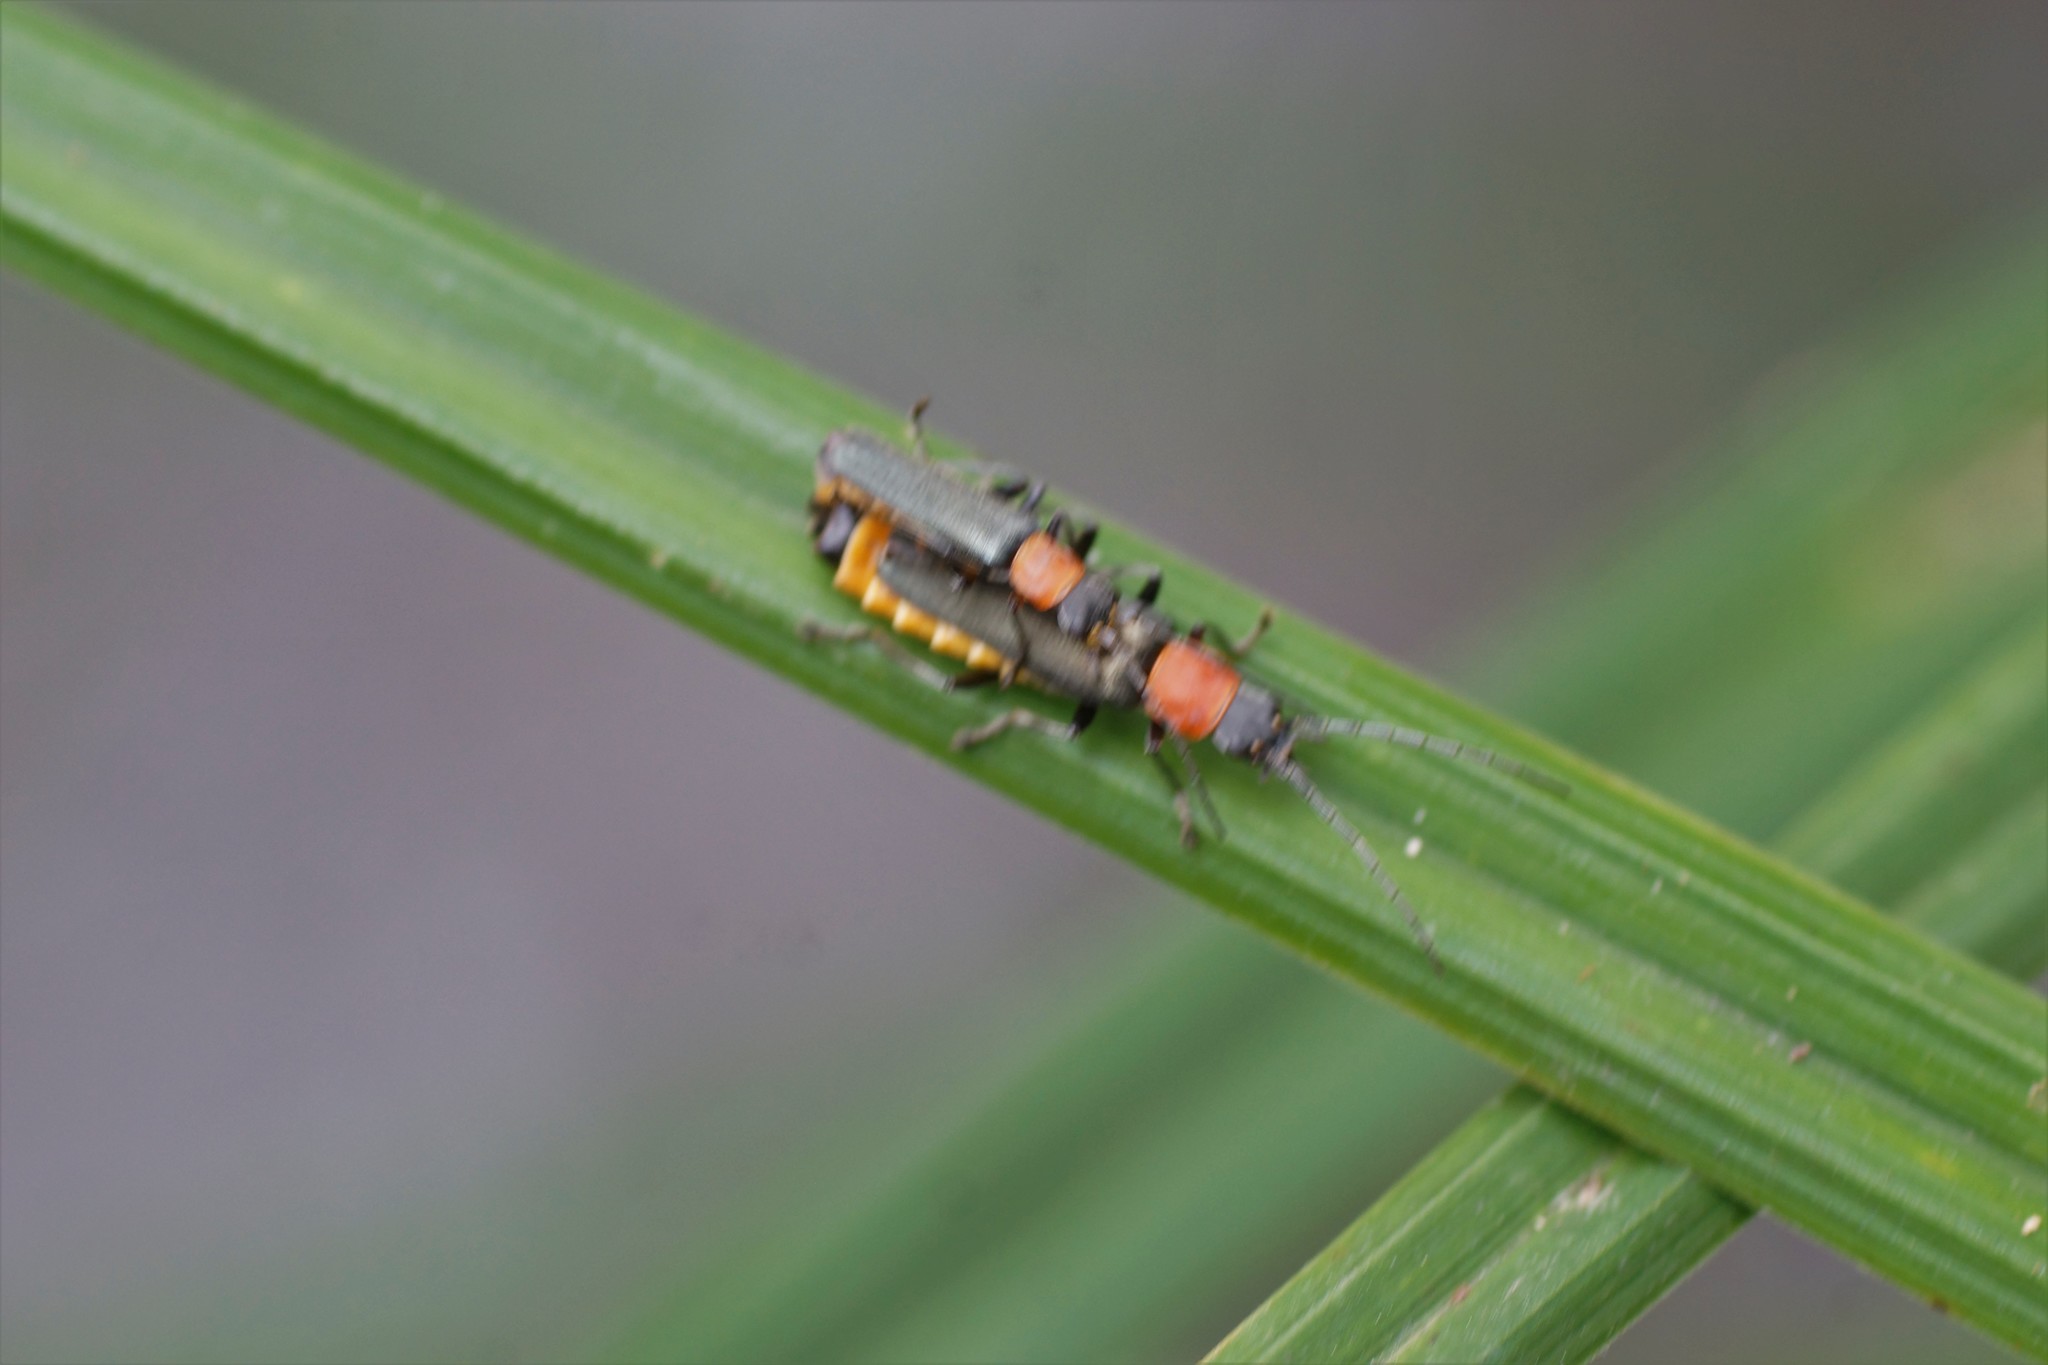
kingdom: Animalia
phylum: Arthropoda
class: Insecta
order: Coleoptera
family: Cantharidae
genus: Chauliognathus
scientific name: Chauliognathus
